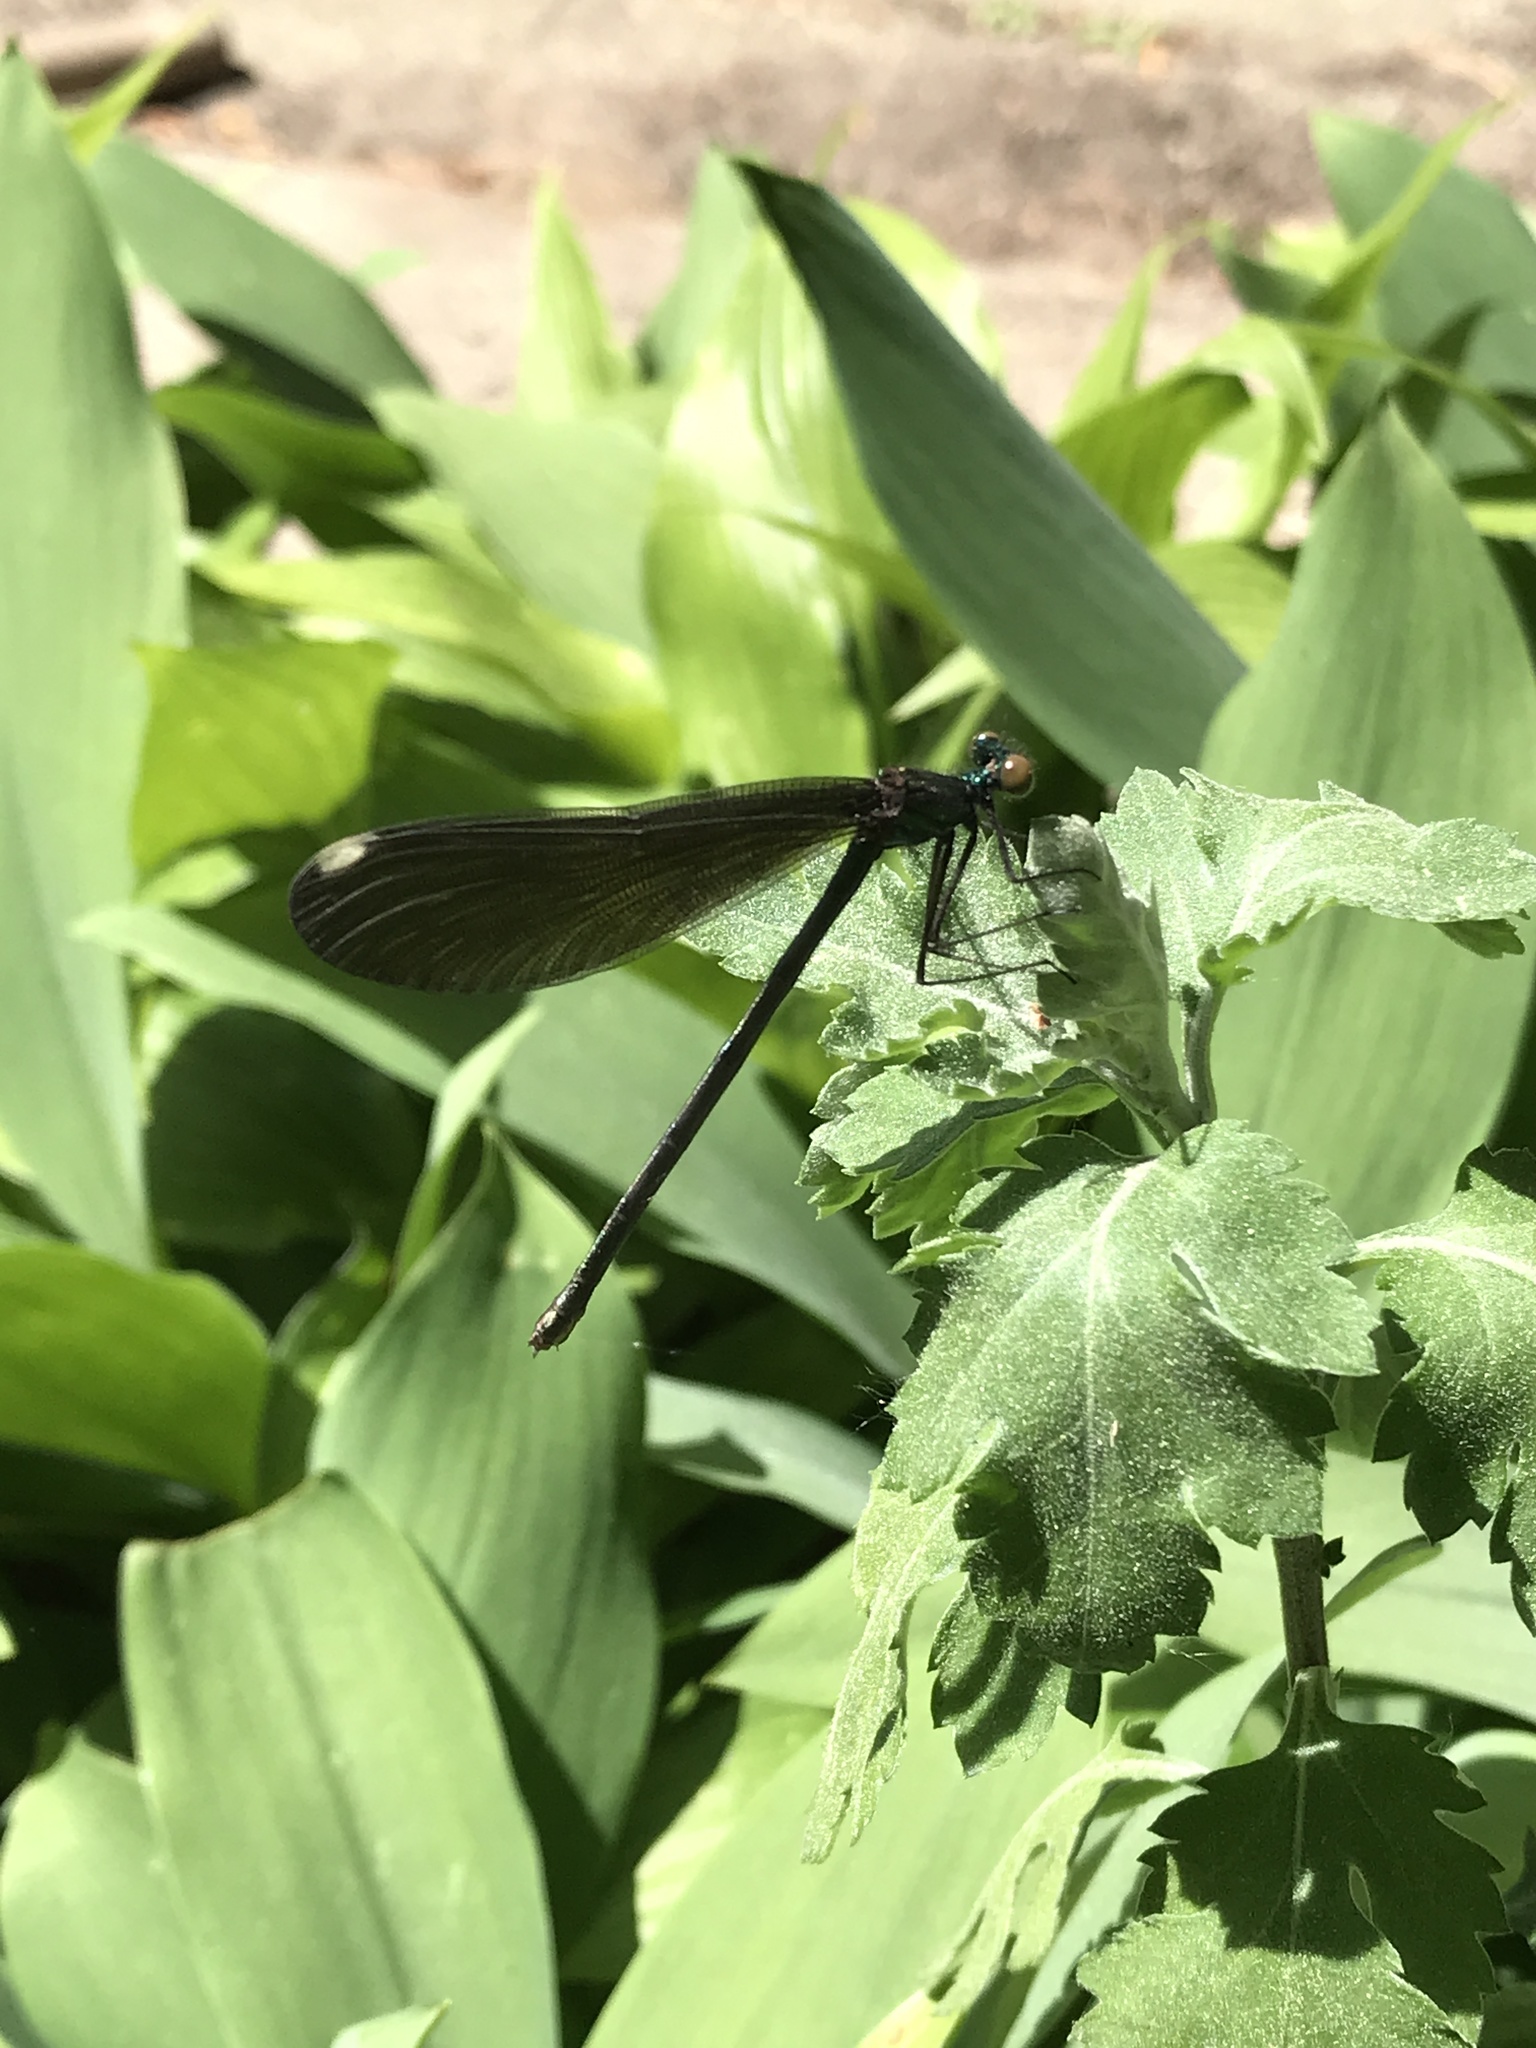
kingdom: Animalia
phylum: Arthropoda
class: Insecta
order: Odonata
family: Calopterygidae
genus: Calopteryx
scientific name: Calopteryx maculata
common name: Ebony jewelwing
